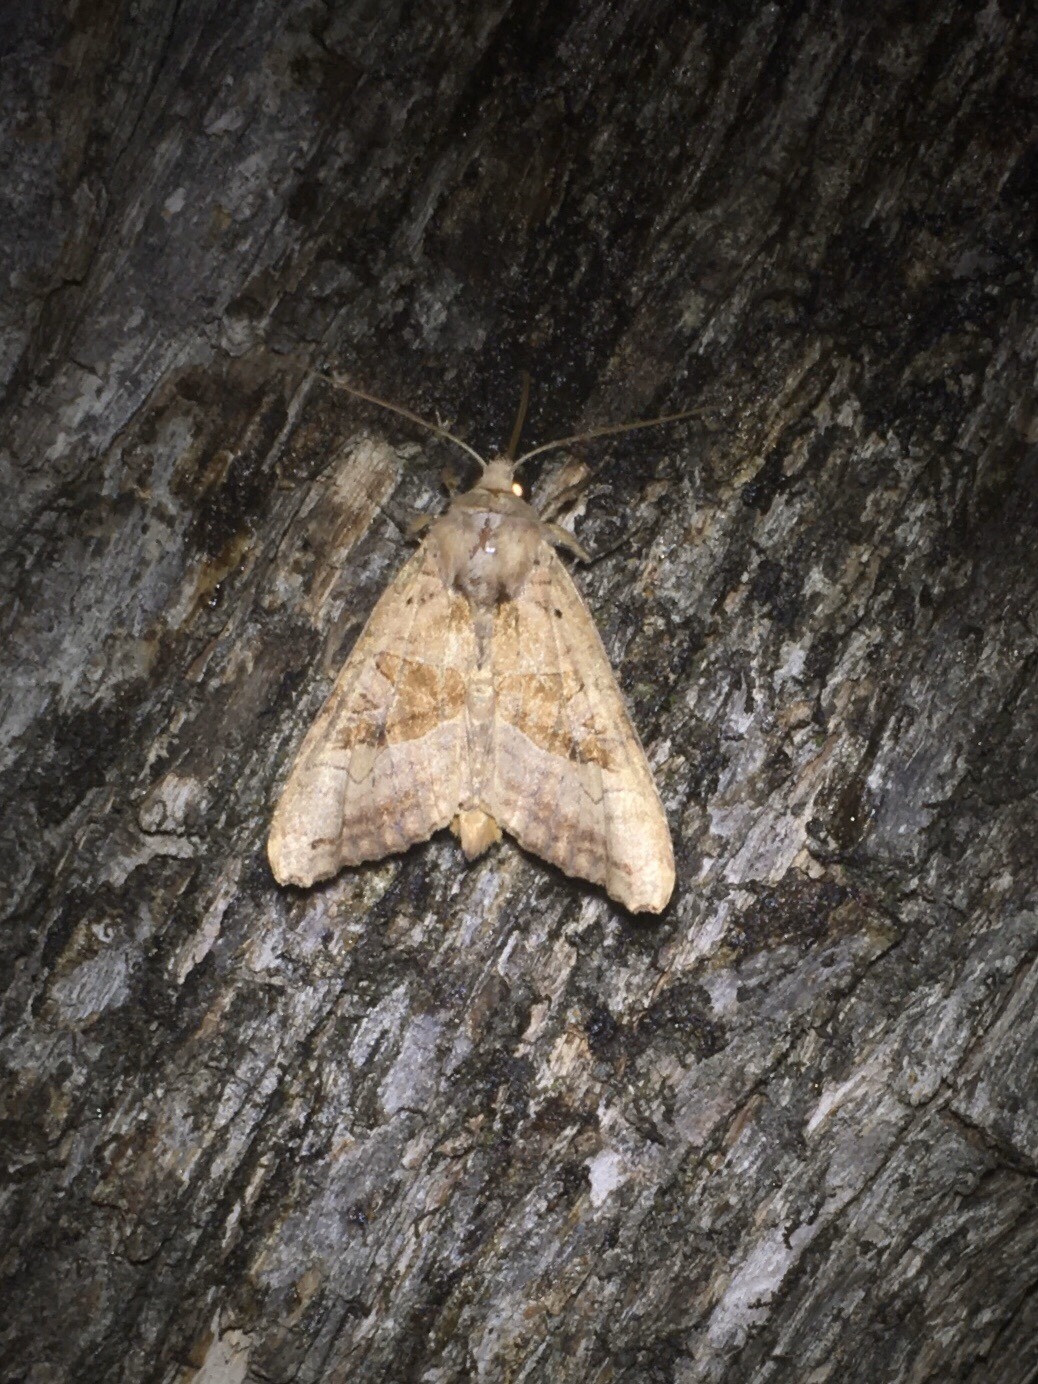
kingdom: Animalia
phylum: Arthropoda
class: Insecta
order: Lepidoptera
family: Noctuidae
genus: Phlogophora
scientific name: Phlogophora periculosa
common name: Brown angle shades
